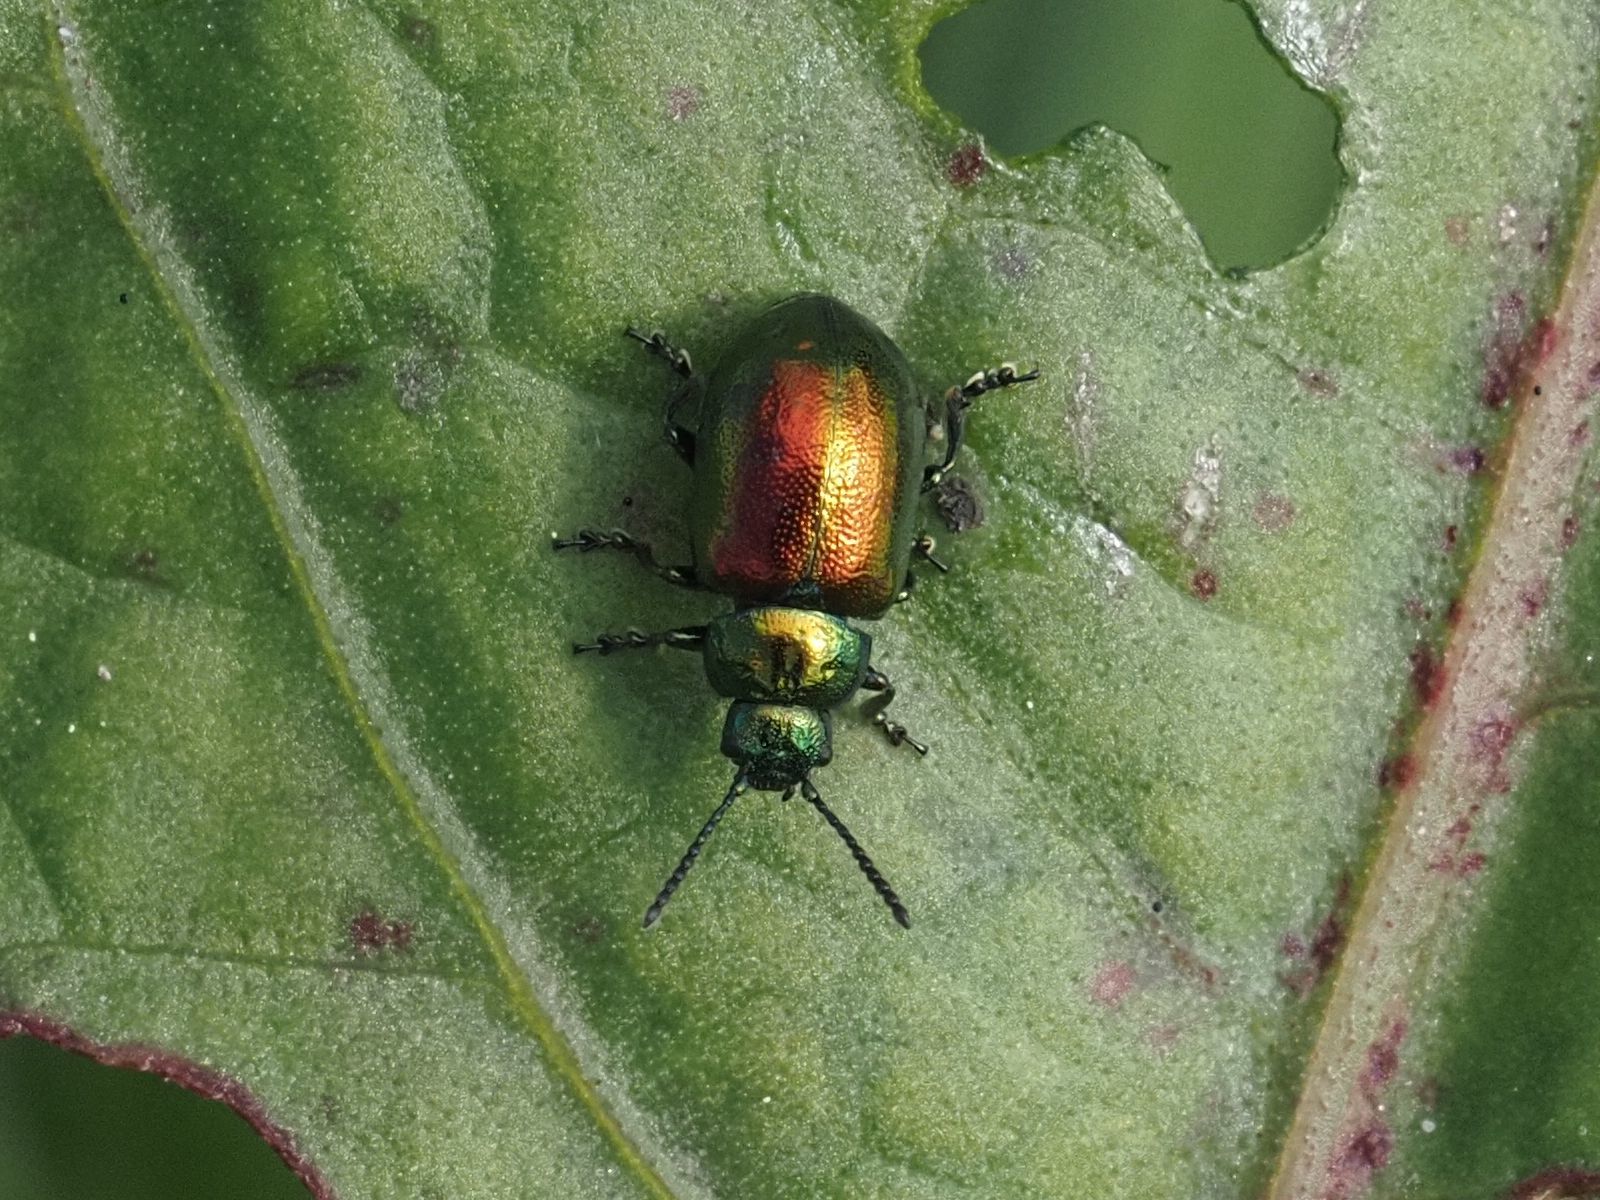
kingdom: Animalia
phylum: Arthropoda
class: Insecta
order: Coleoptera
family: Chrysomelidae
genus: Gastrophysa
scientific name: Gastrophysa viridula
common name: Green dock beetle
